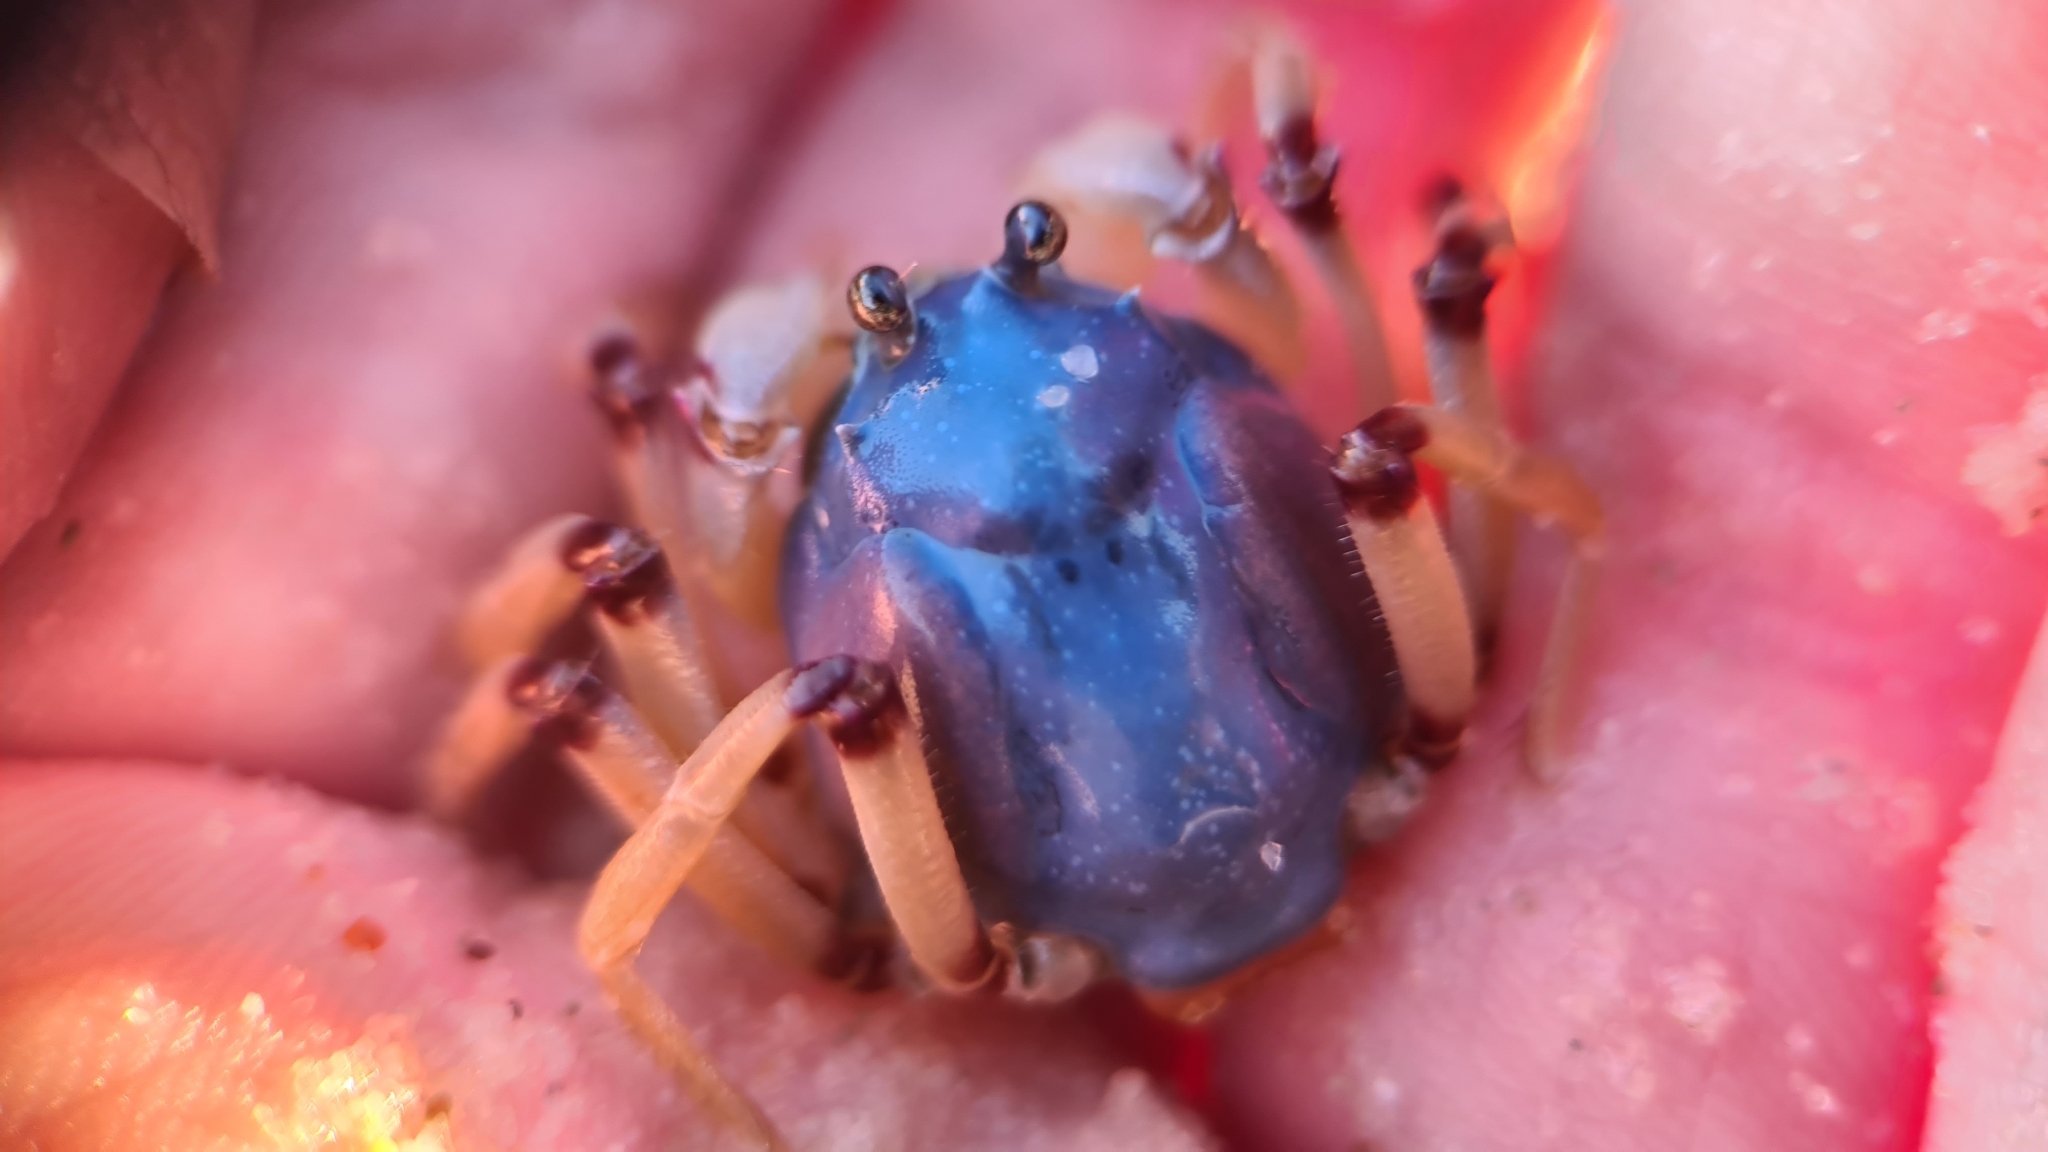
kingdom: Animalia
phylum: Arthropoda
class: Malacostraca
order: Decapoda
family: Mictyridae
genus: Mictyris
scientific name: Mictyris longicarpus
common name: Light-blue soldier crab
